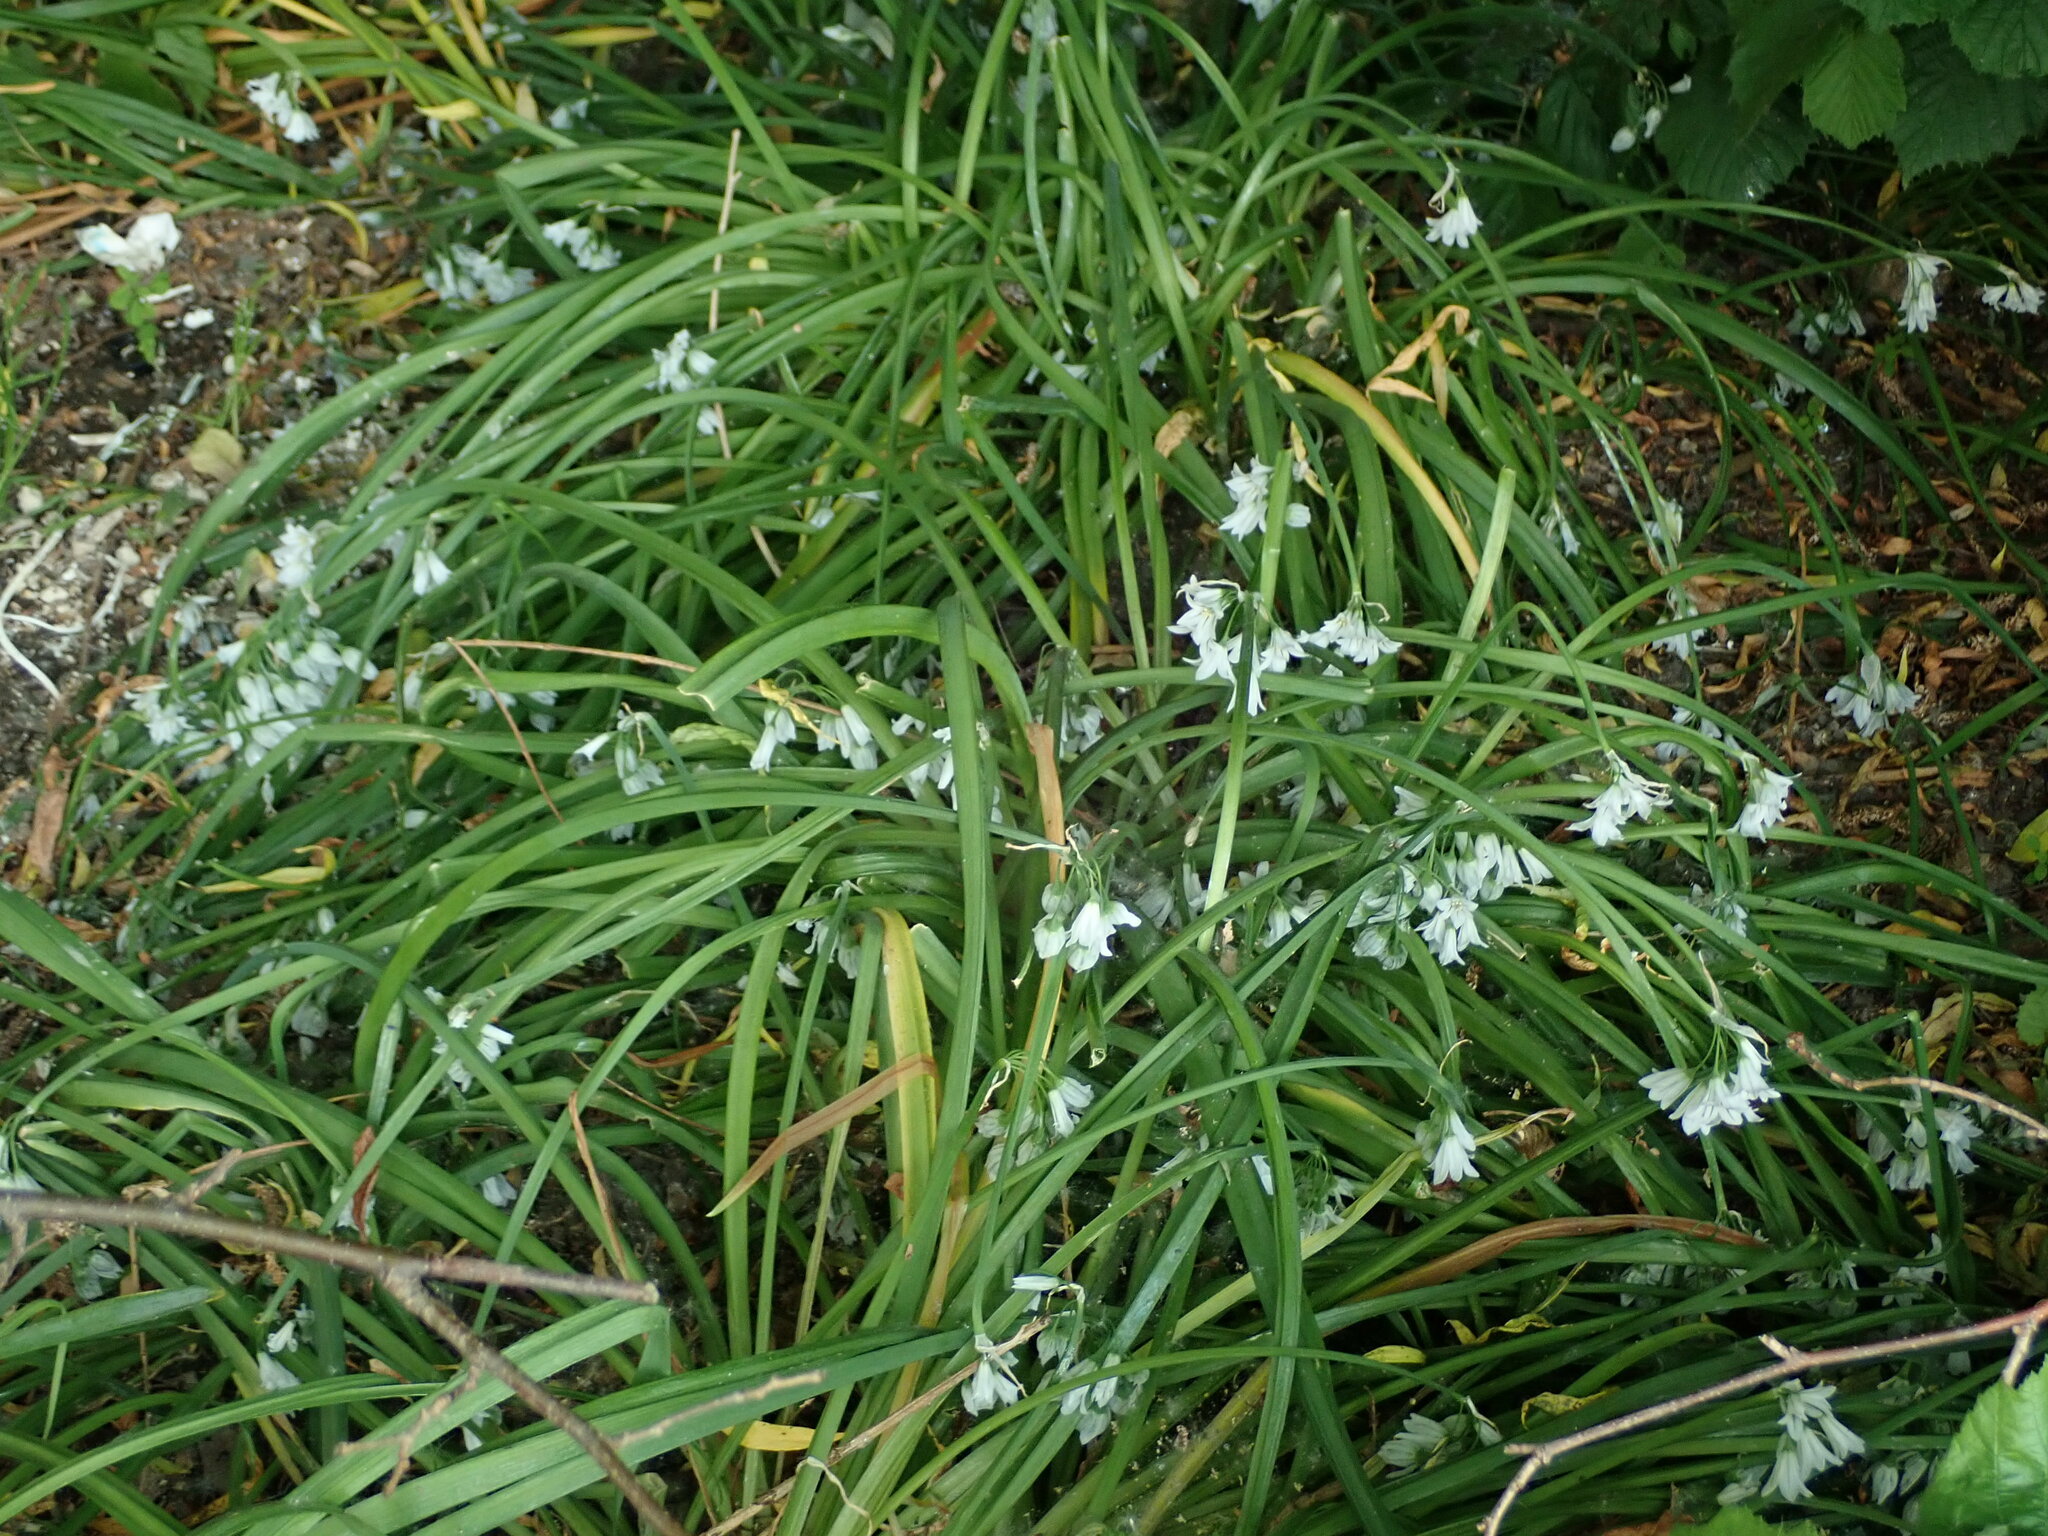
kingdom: Plantae
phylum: Tracheophyta
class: Liliopsida
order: Asparagales
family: Amaryllidaceae
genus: Allium
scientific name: Allium triquetrum
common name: Three-cornered garlic
